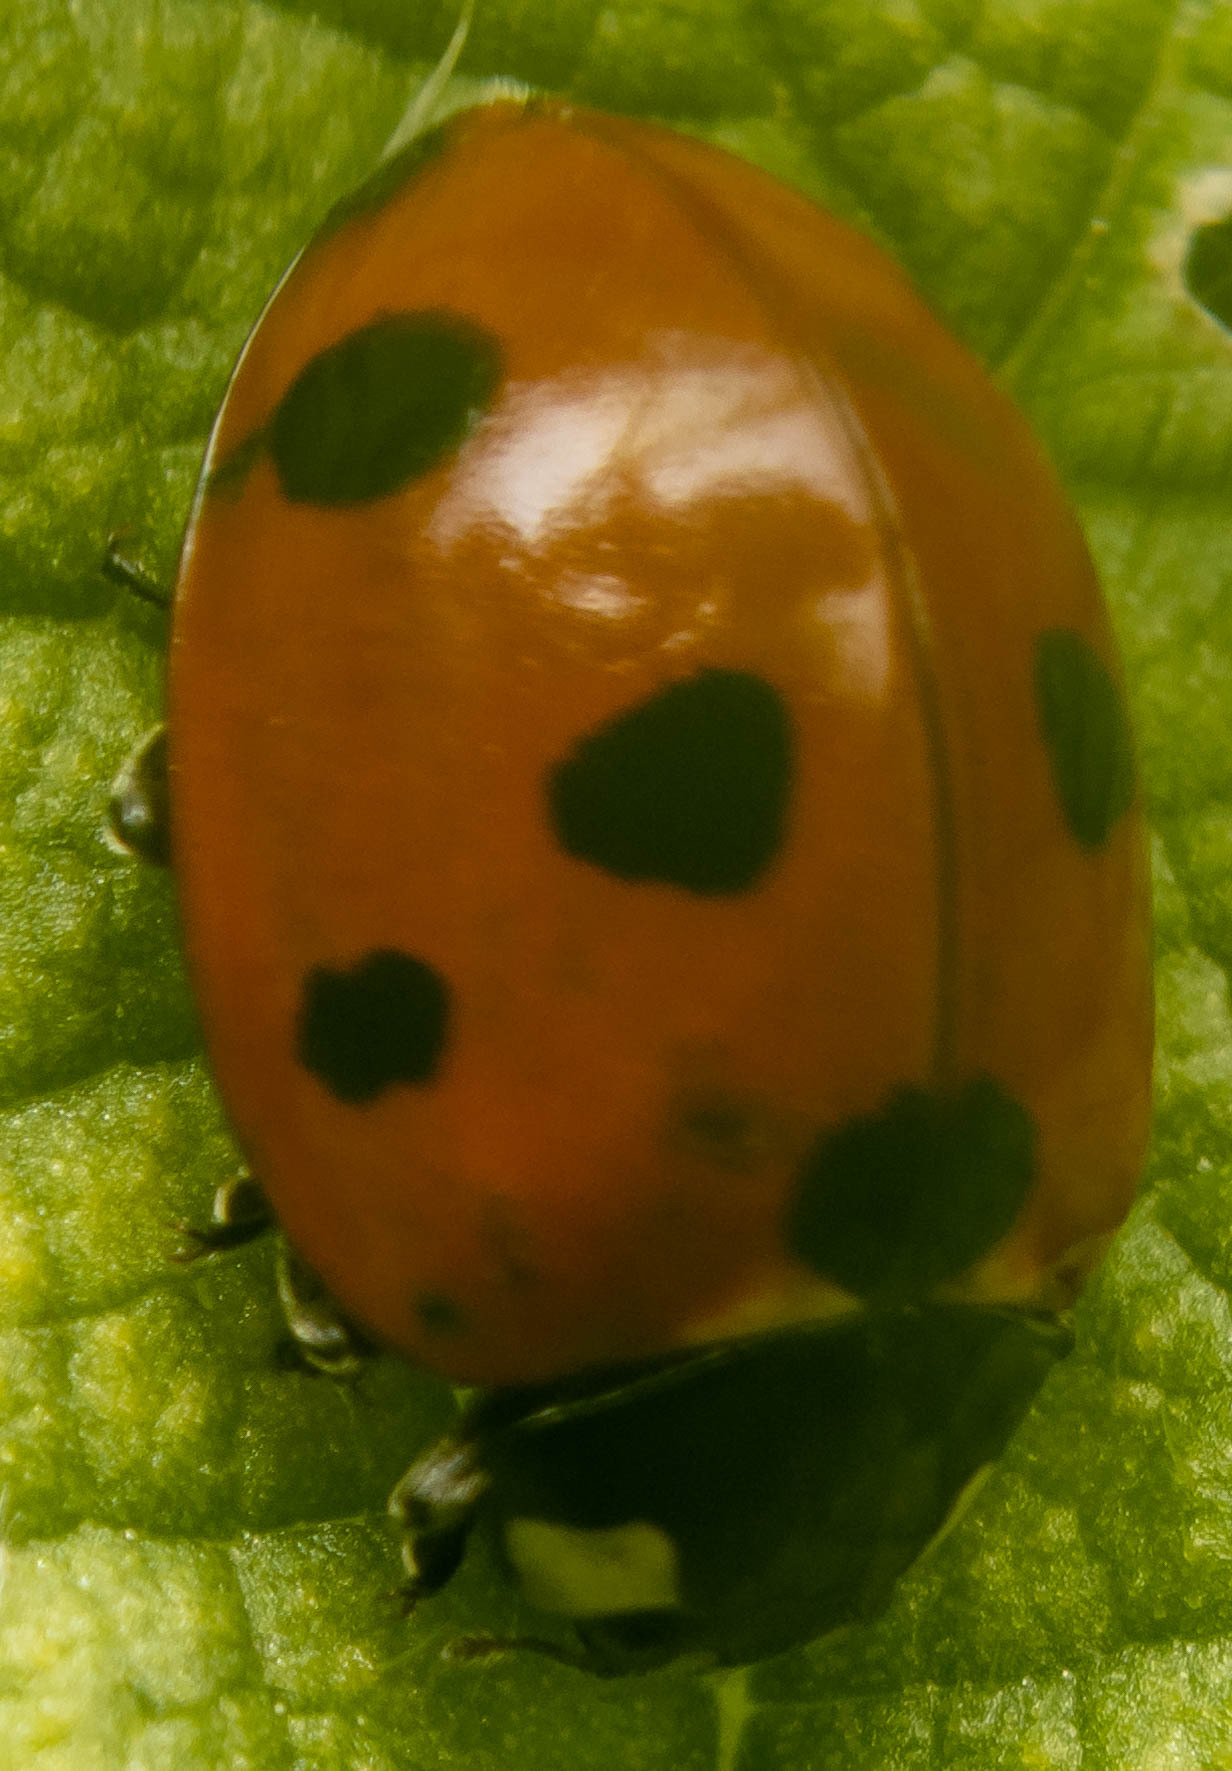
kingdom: Animalia
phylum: Arthropoda
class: Insecta
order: Coleoptera
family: Coccinellidae
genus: Coccinella
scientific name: Coccinella septempunctata
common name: Sevenspotted lady beetle
